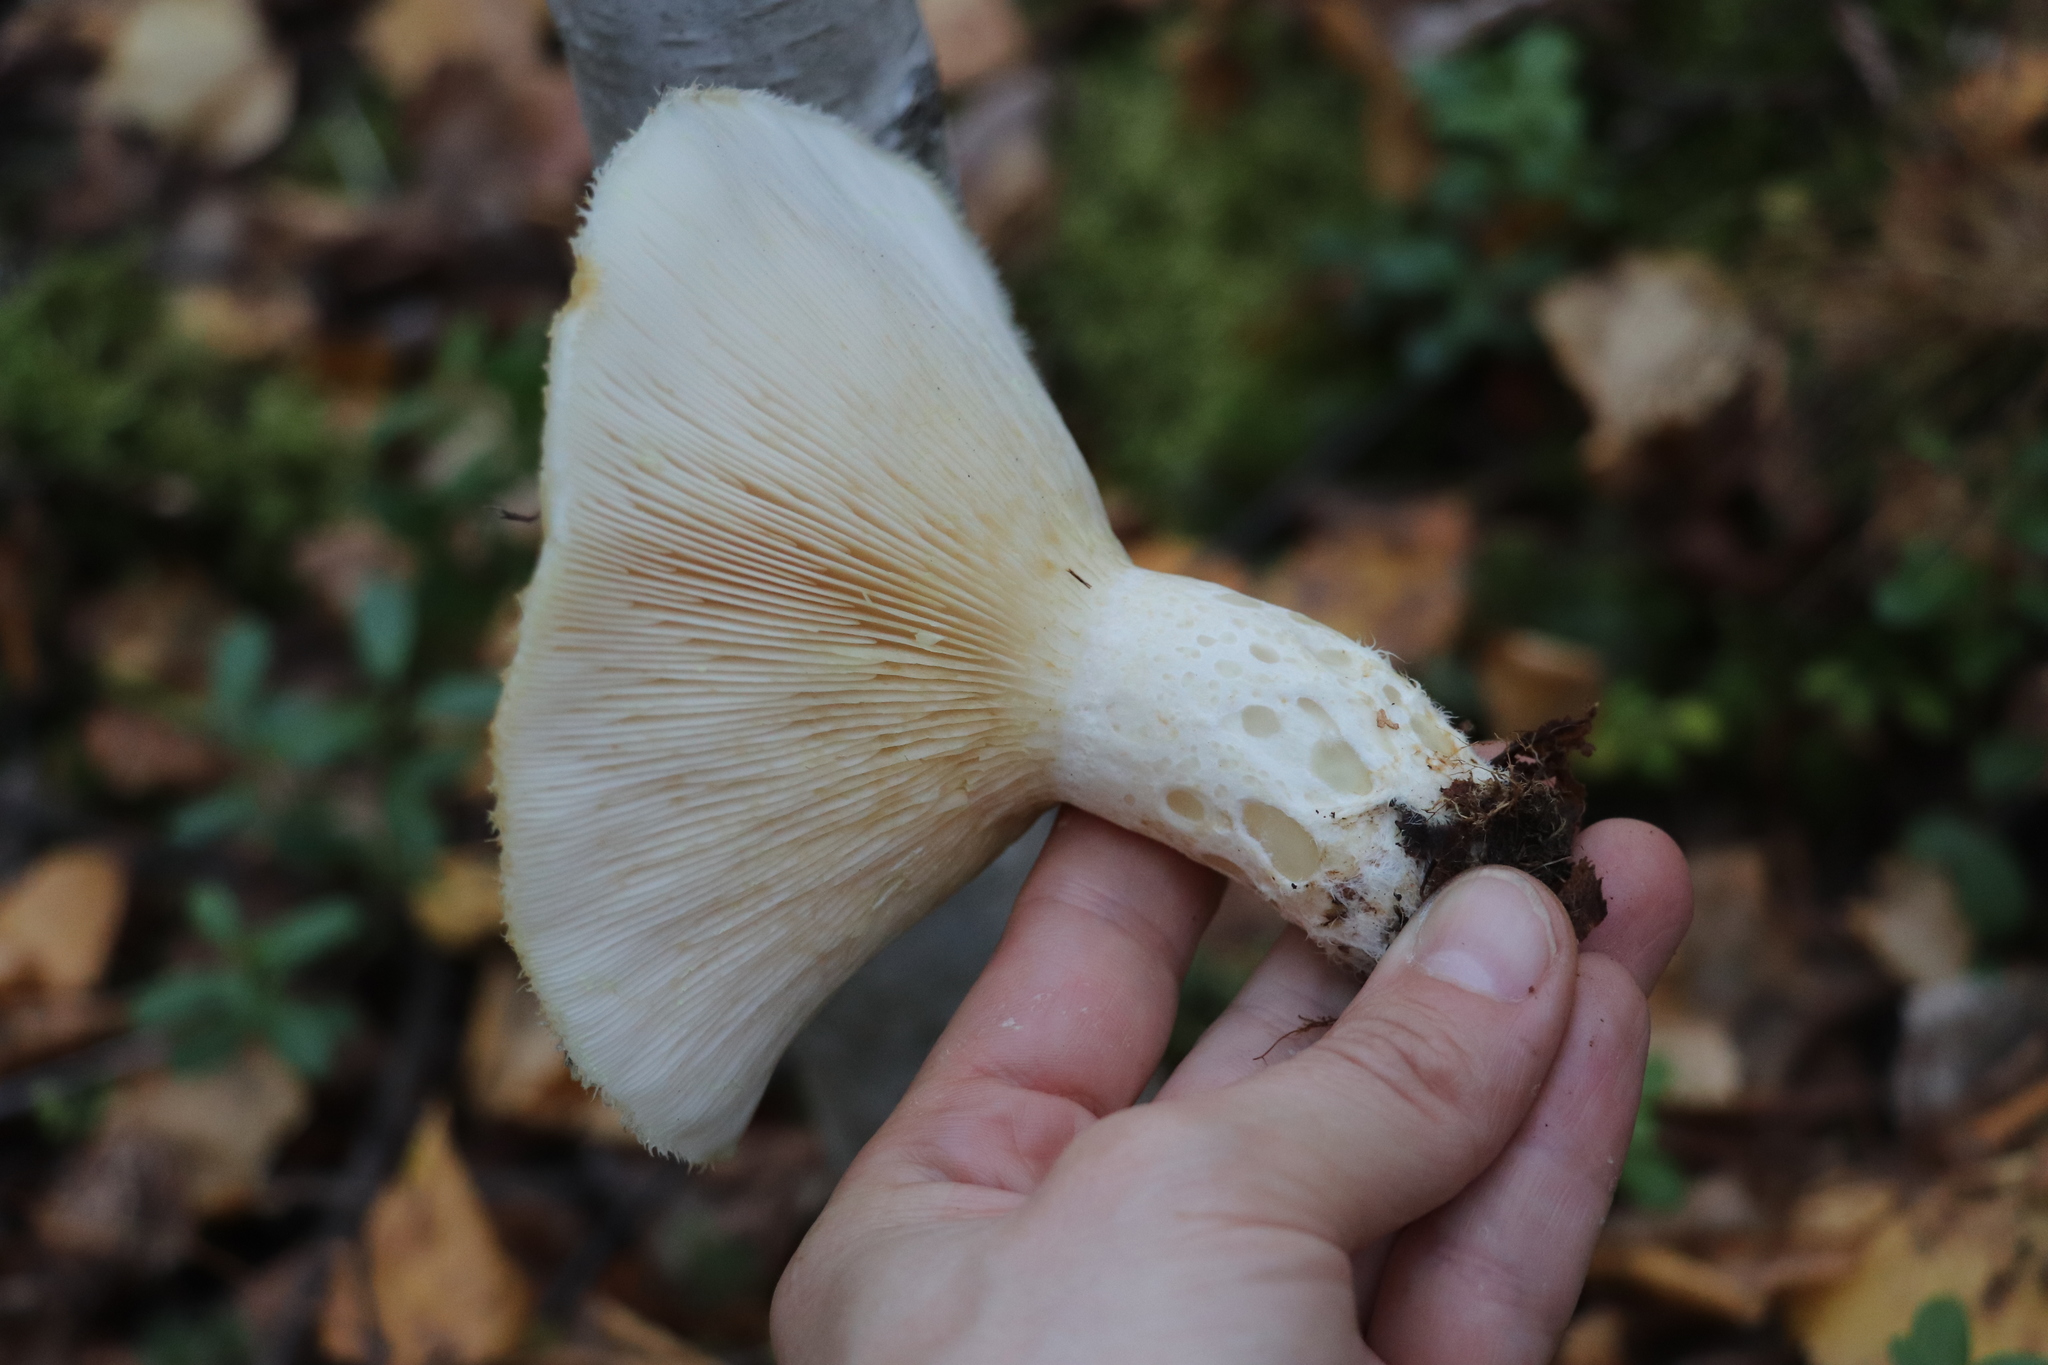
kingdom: Fungi
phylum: Basidiomycota
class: Agaricomycetes
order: Russulales
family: Russulaceae
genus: Lactarius
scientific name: Lactarius aquizonatus
